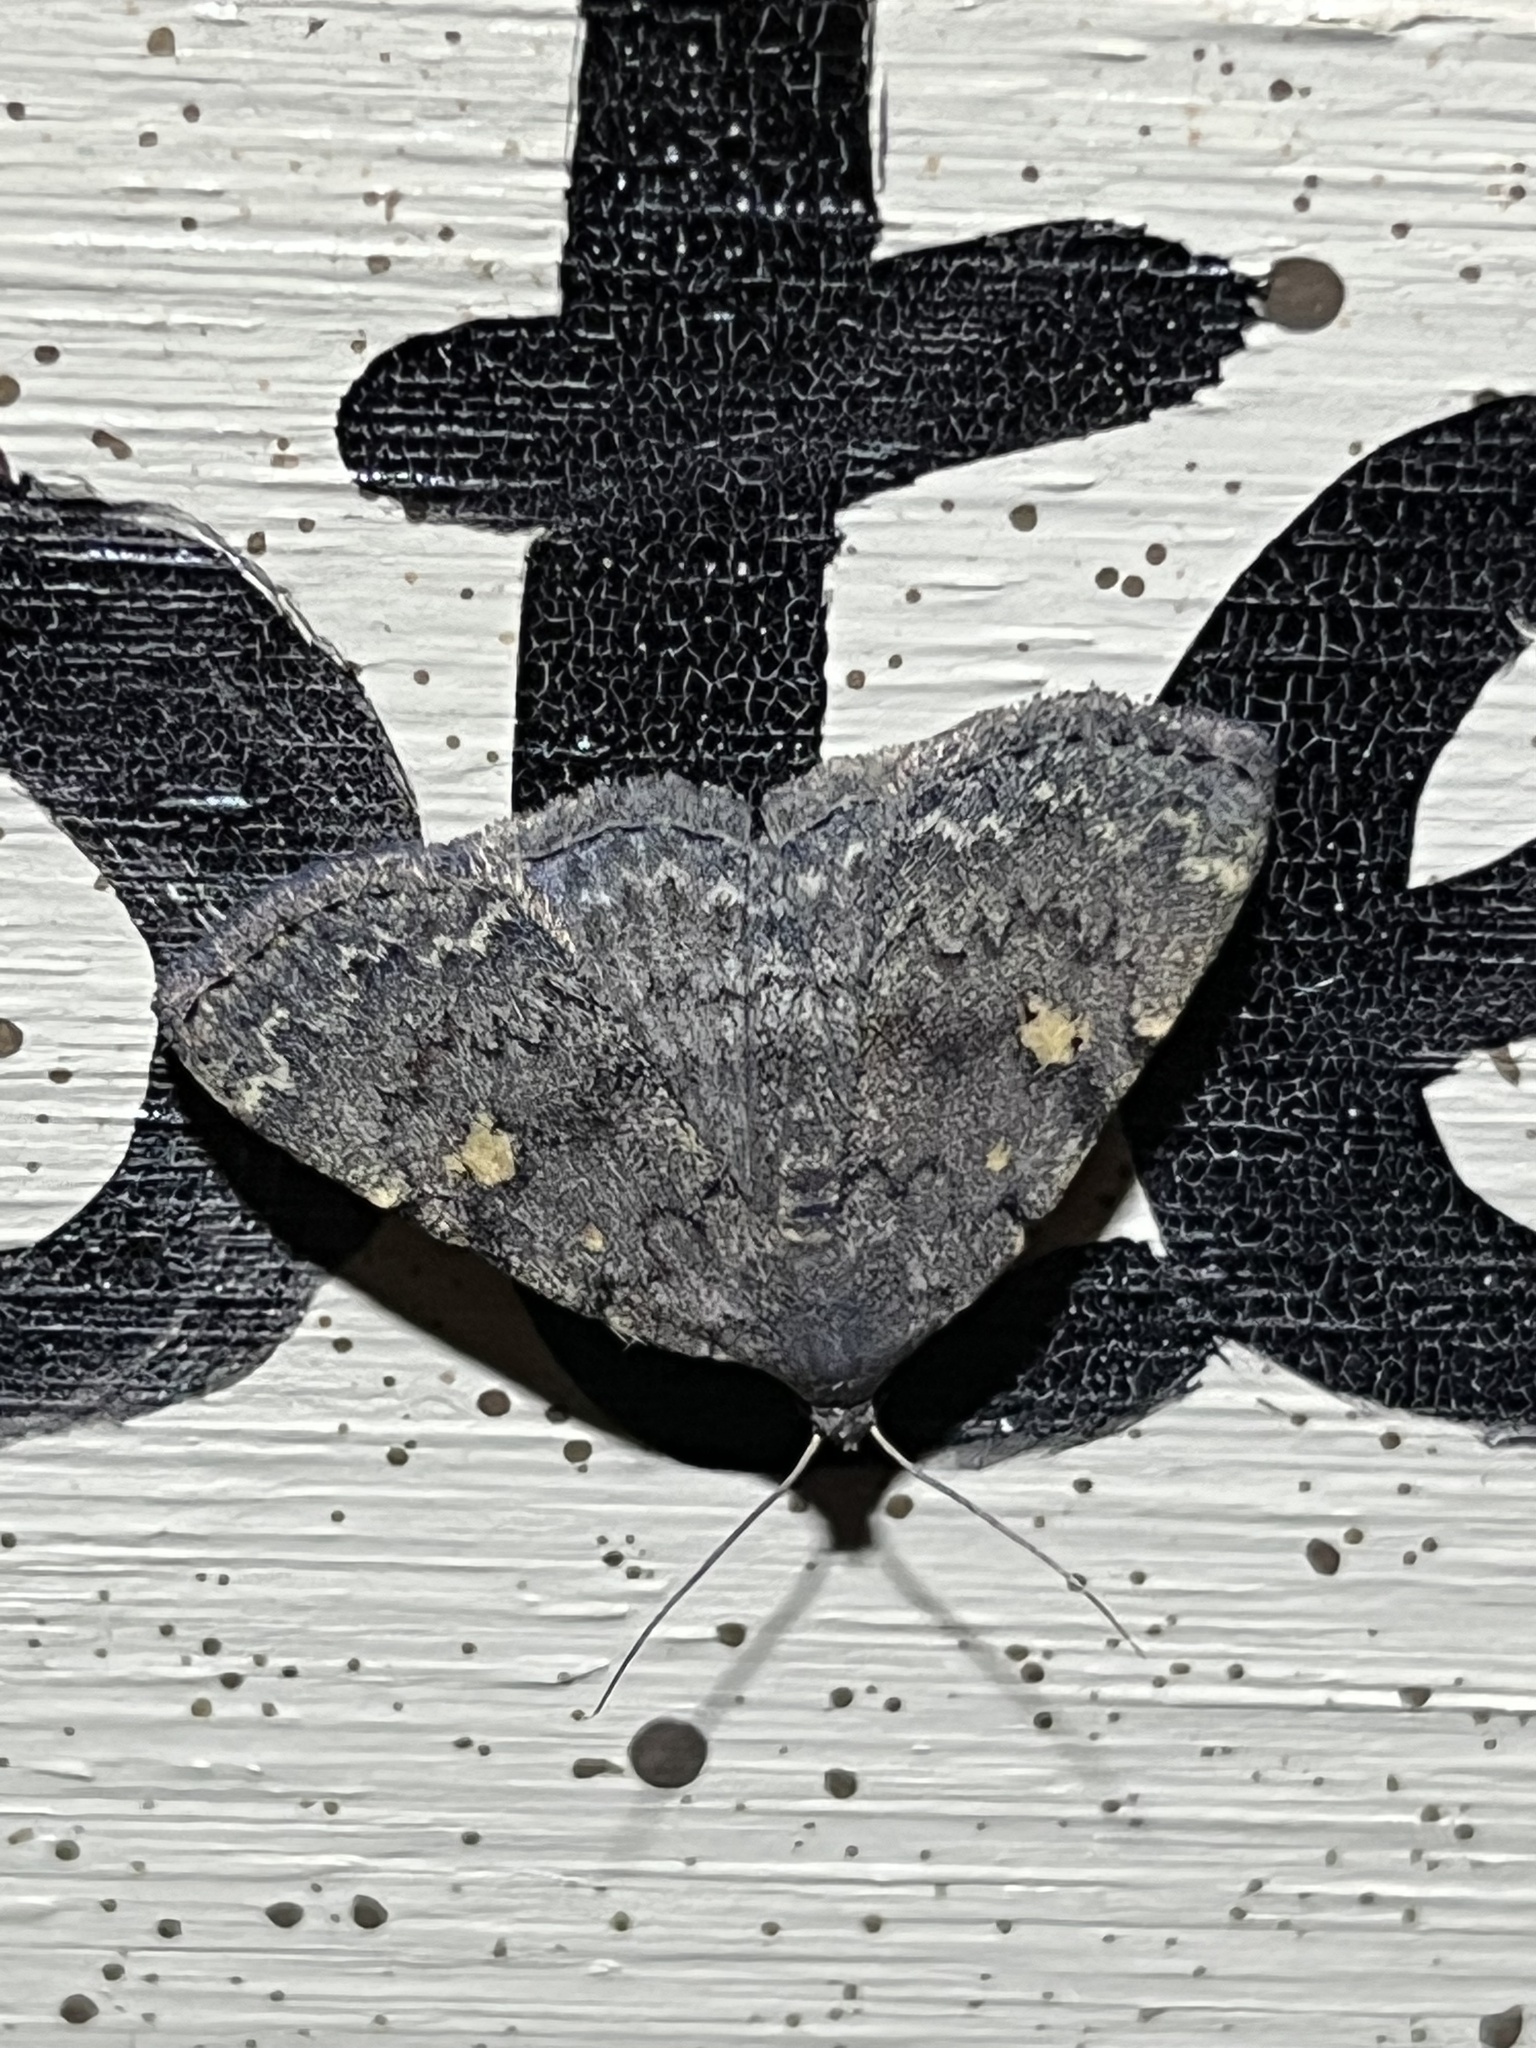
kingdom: Animalia
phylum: Arthropoda
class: Insecta
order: Lepidoptera
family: Erebidae
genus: Idia
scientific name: Idia aemula
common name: Common idia moth
